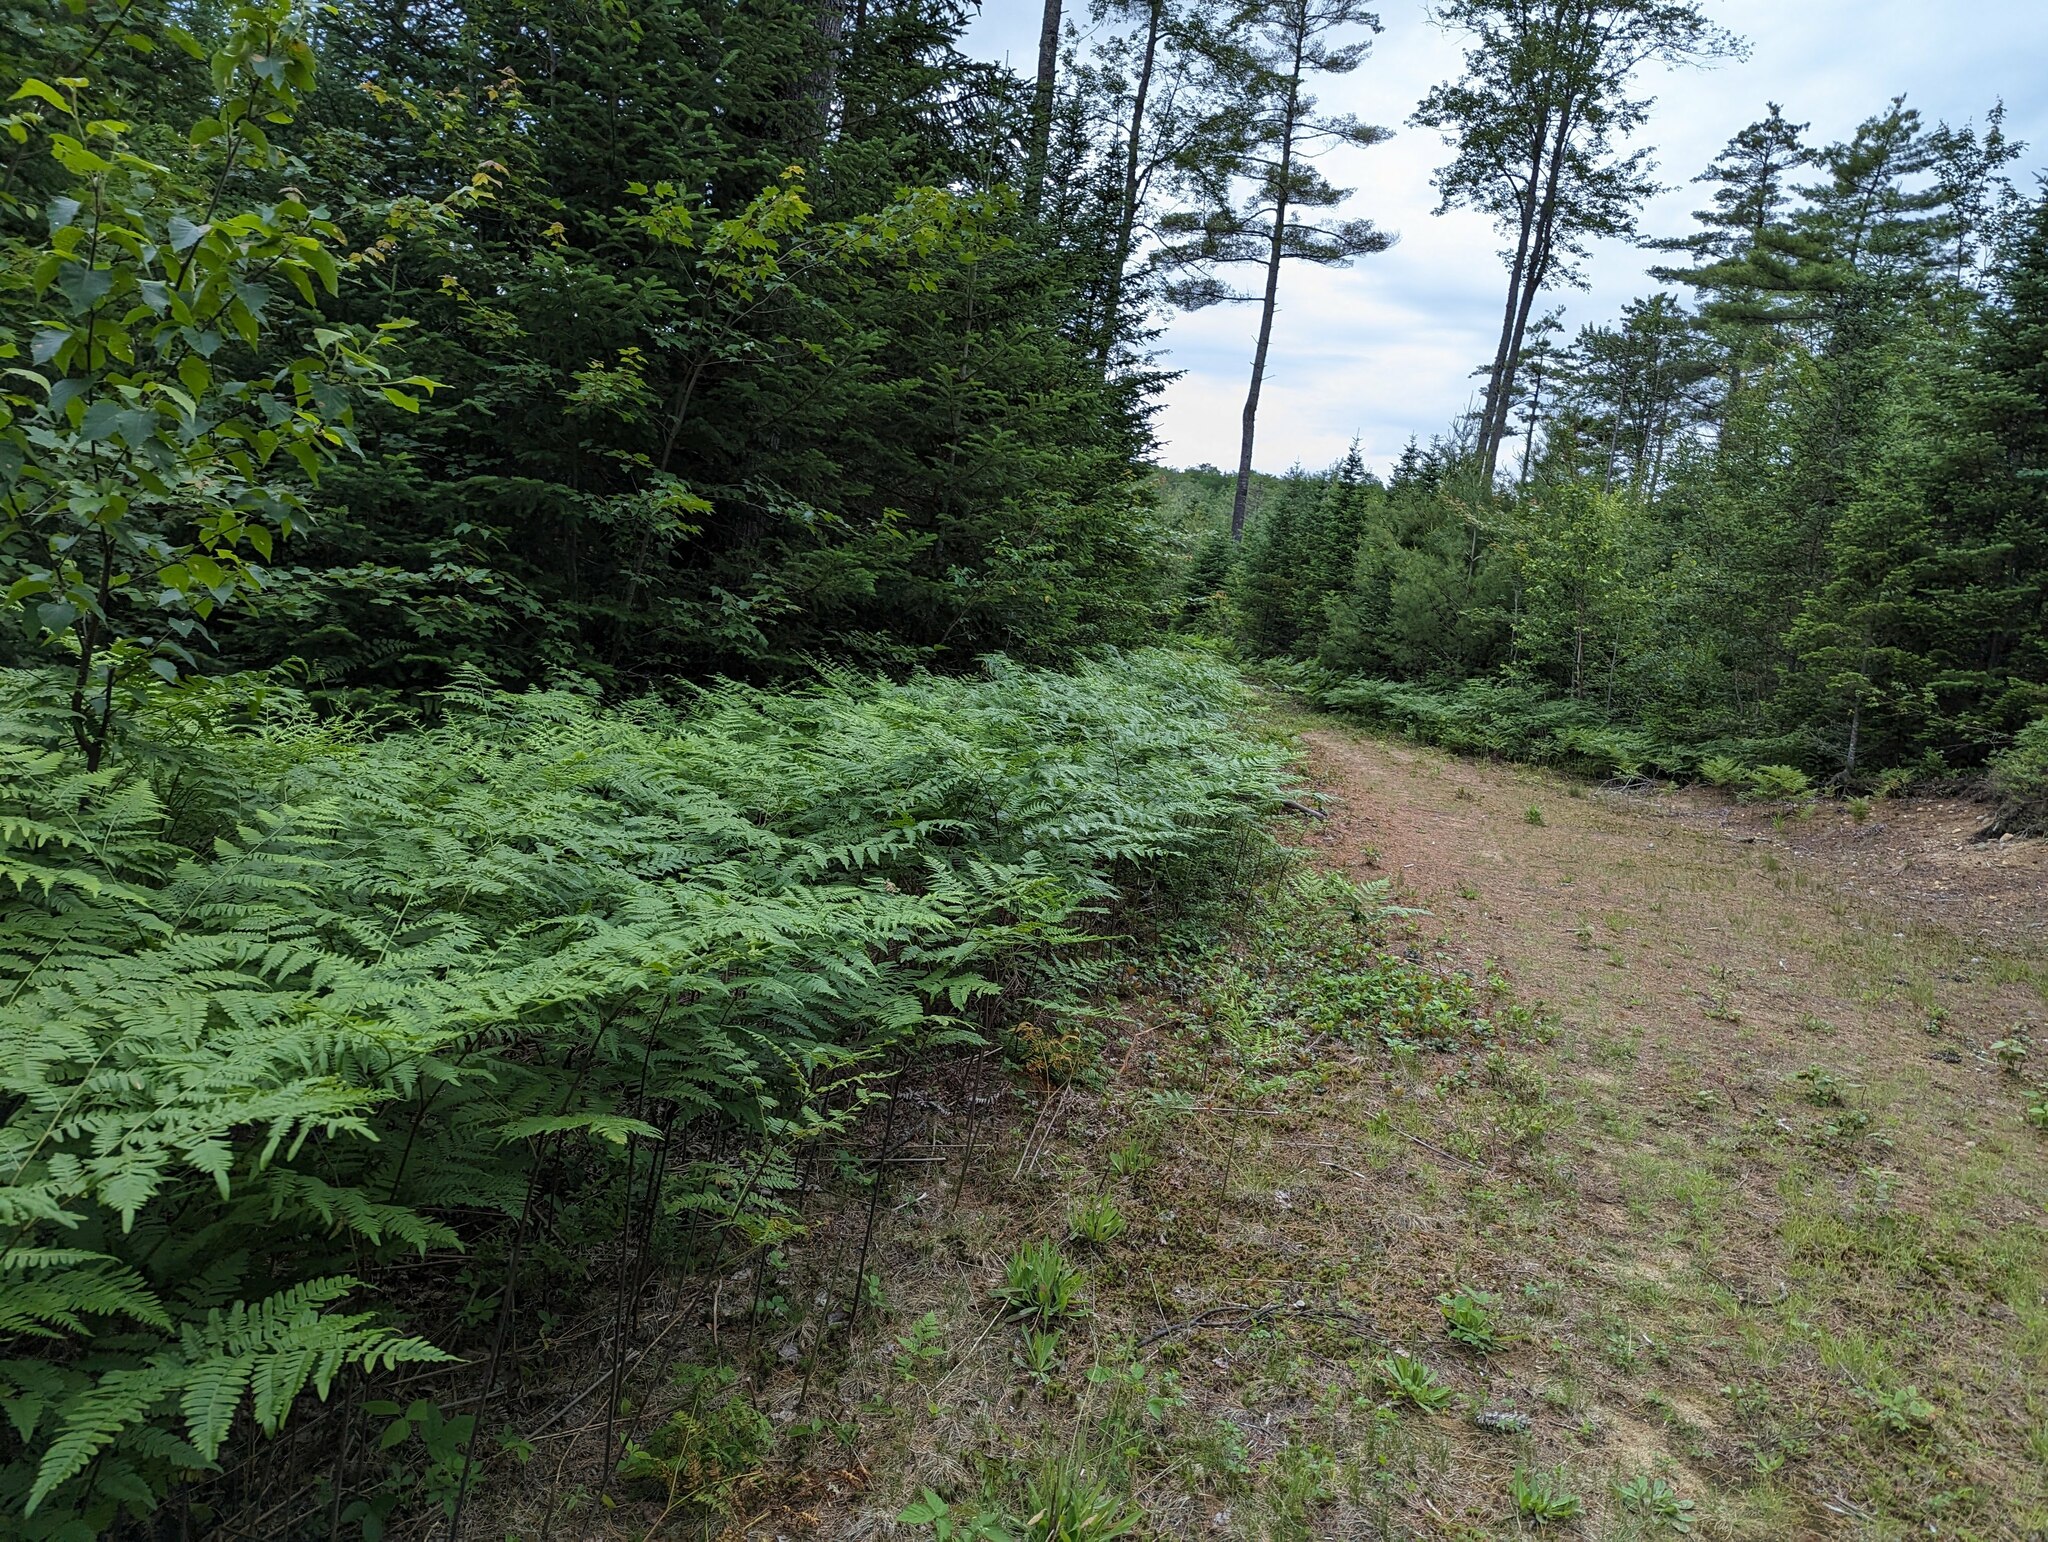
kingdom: Plantae
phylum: Tracheophyta
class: Polypodiopsida
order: Polypodiales
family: Dennstaedtiaceae
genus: Pteridium
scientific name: Pteridium aquilinum
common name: Bracken
